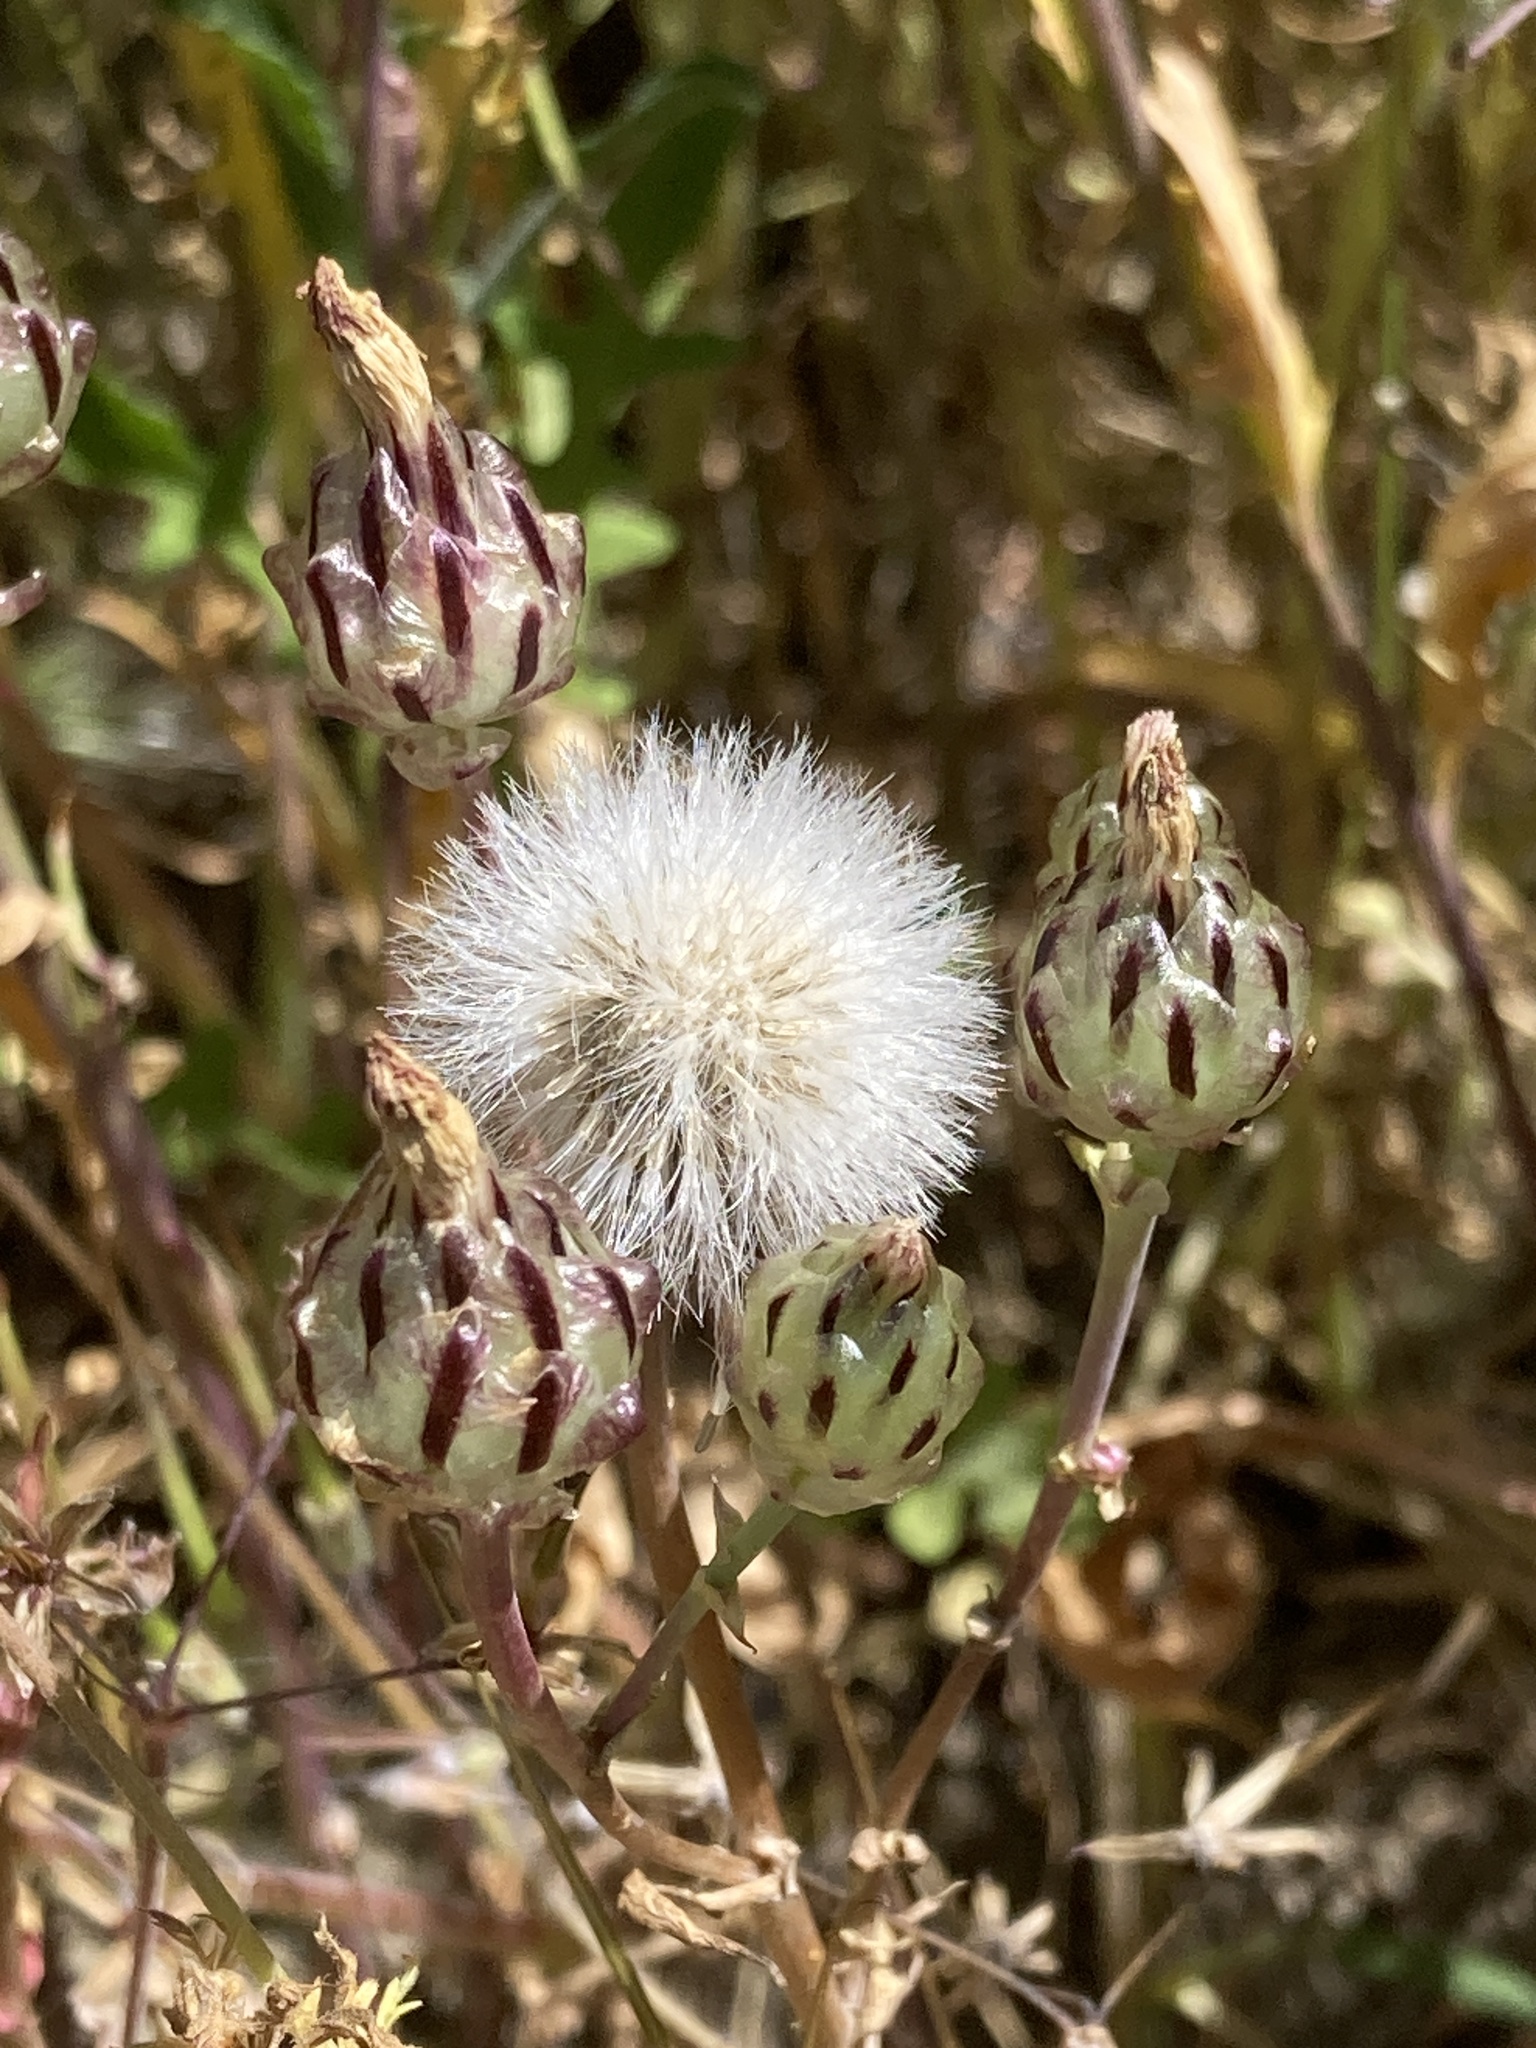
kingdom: Plantae
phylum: Tracheophyta
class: Magnoliopsida
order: Asterales
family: Asteraceae
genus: Malacothrix
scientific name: Malacothrix coulteri
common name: Snake's-head
